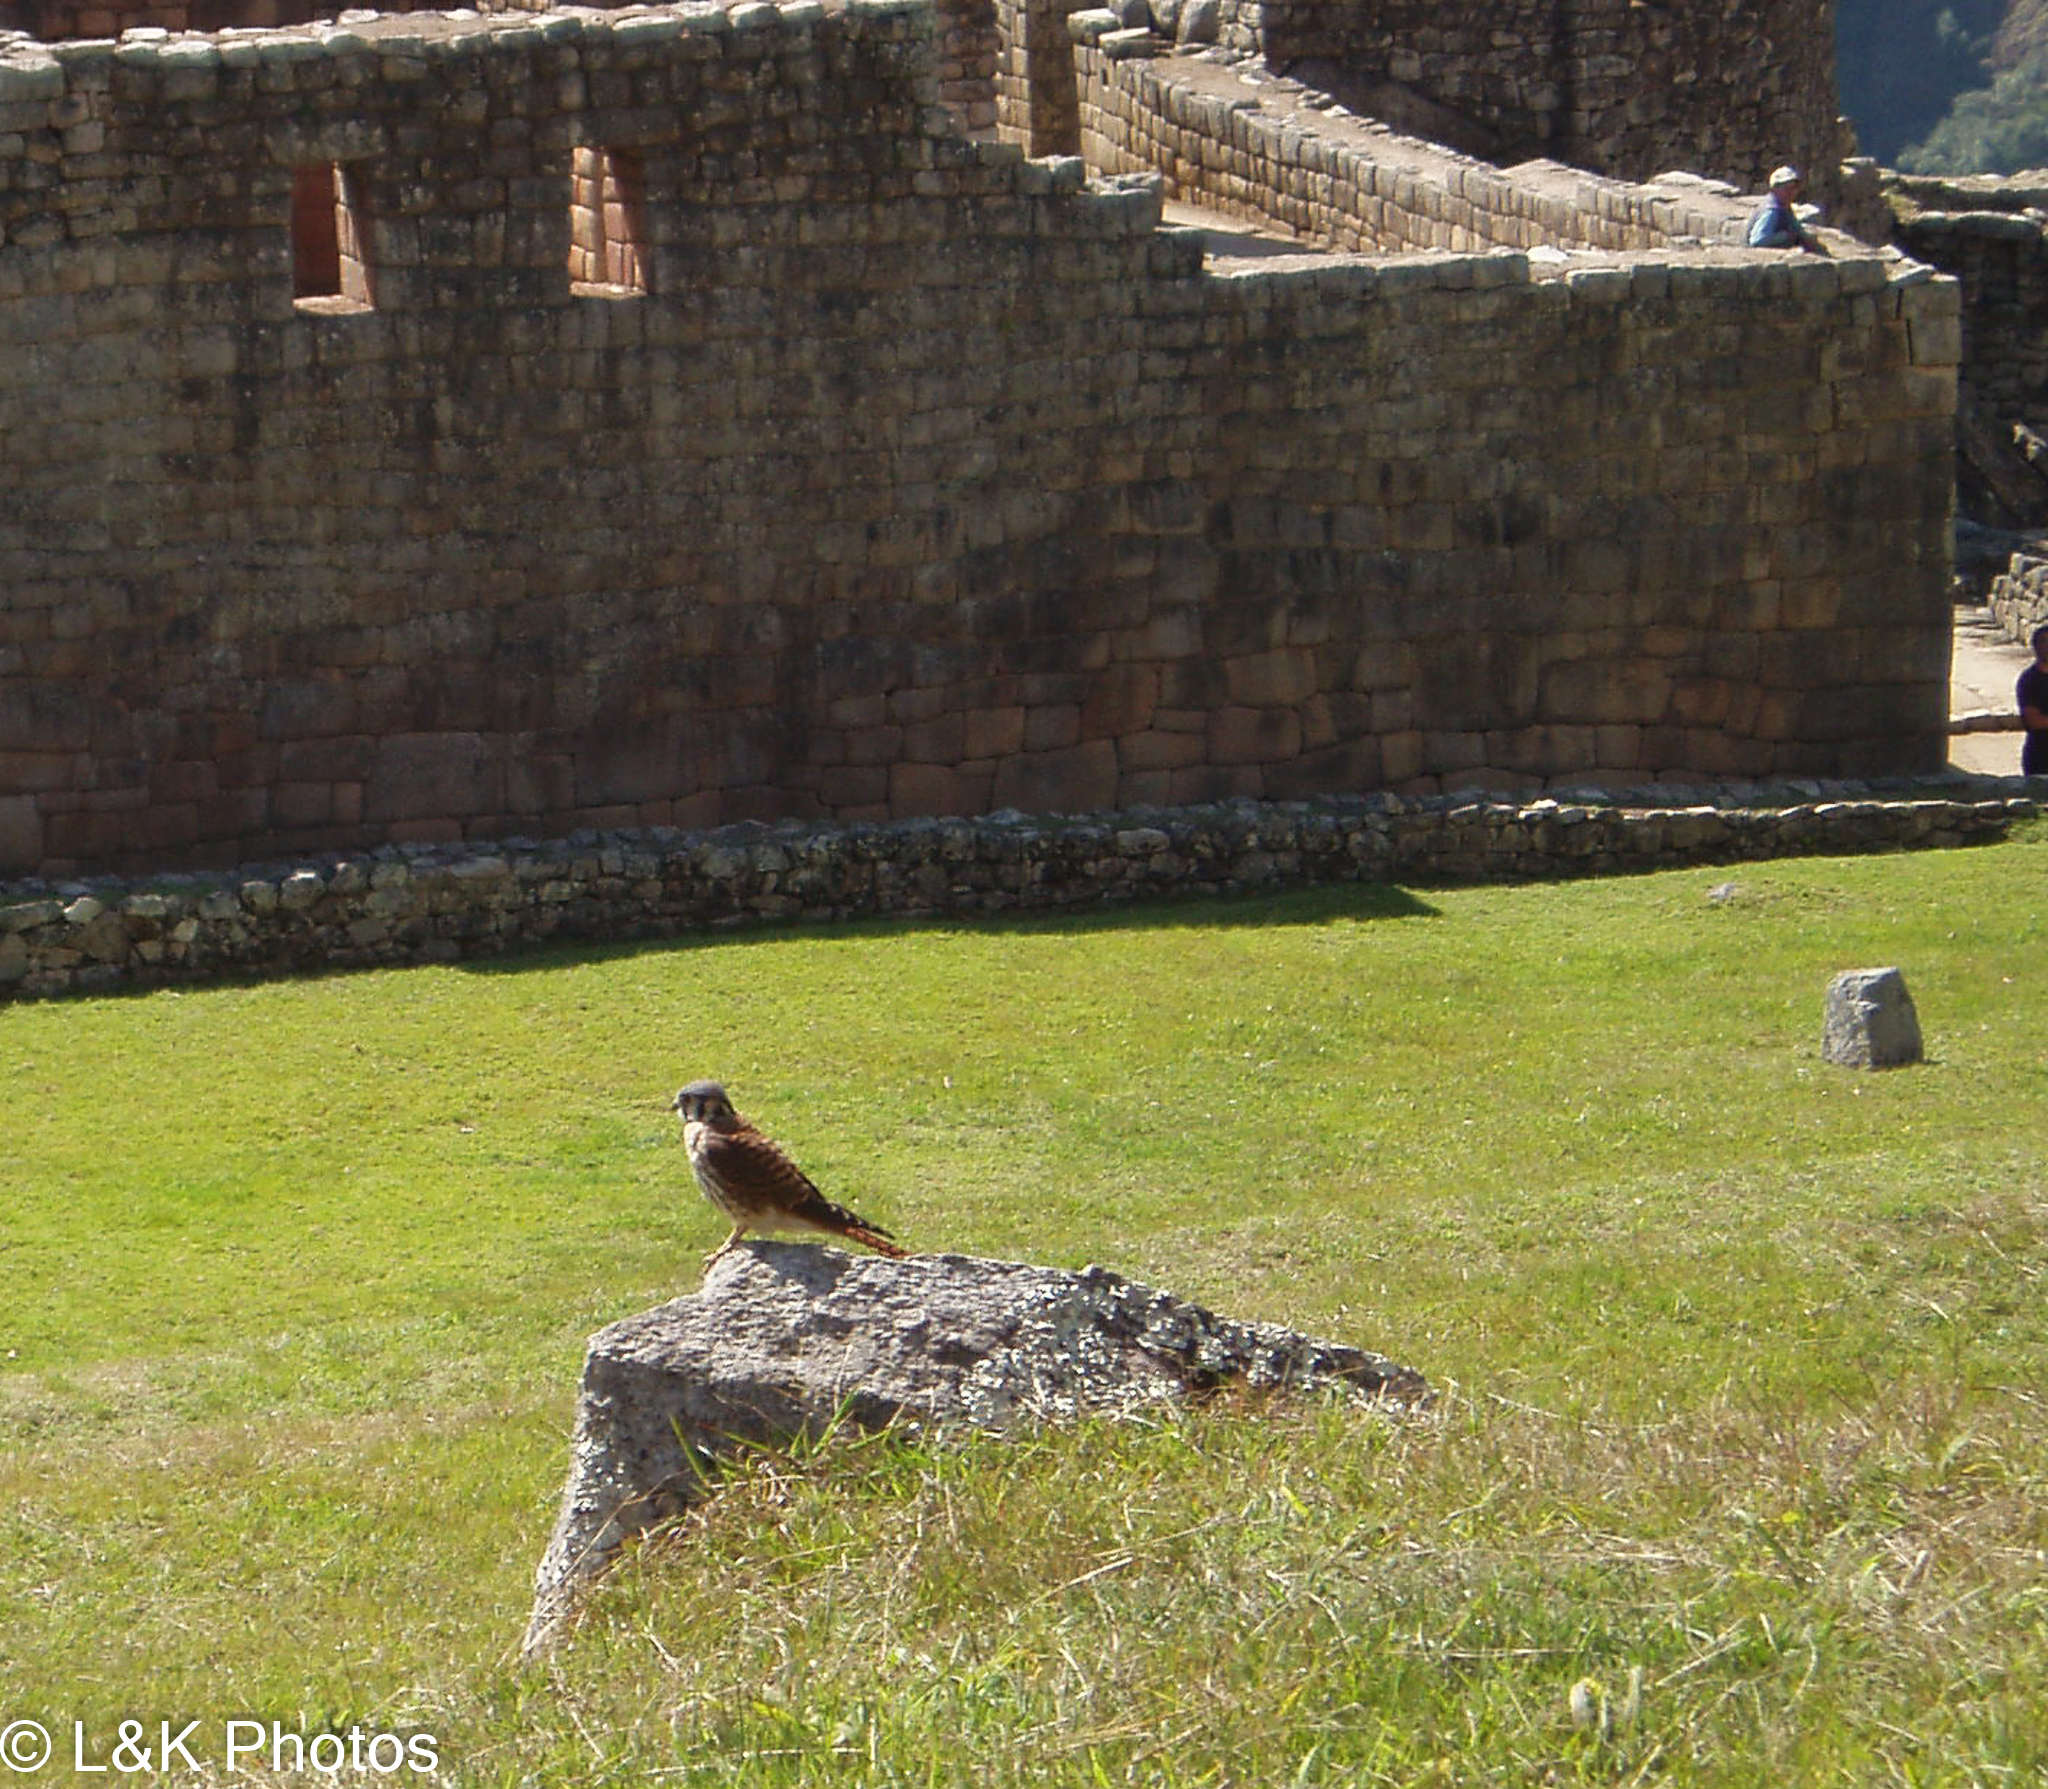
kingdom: Animalia
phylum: Chordata
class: Aves
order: Falconiformes
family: Falconidae
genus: Falco
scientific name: Falco sparverius
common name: American kestrel
